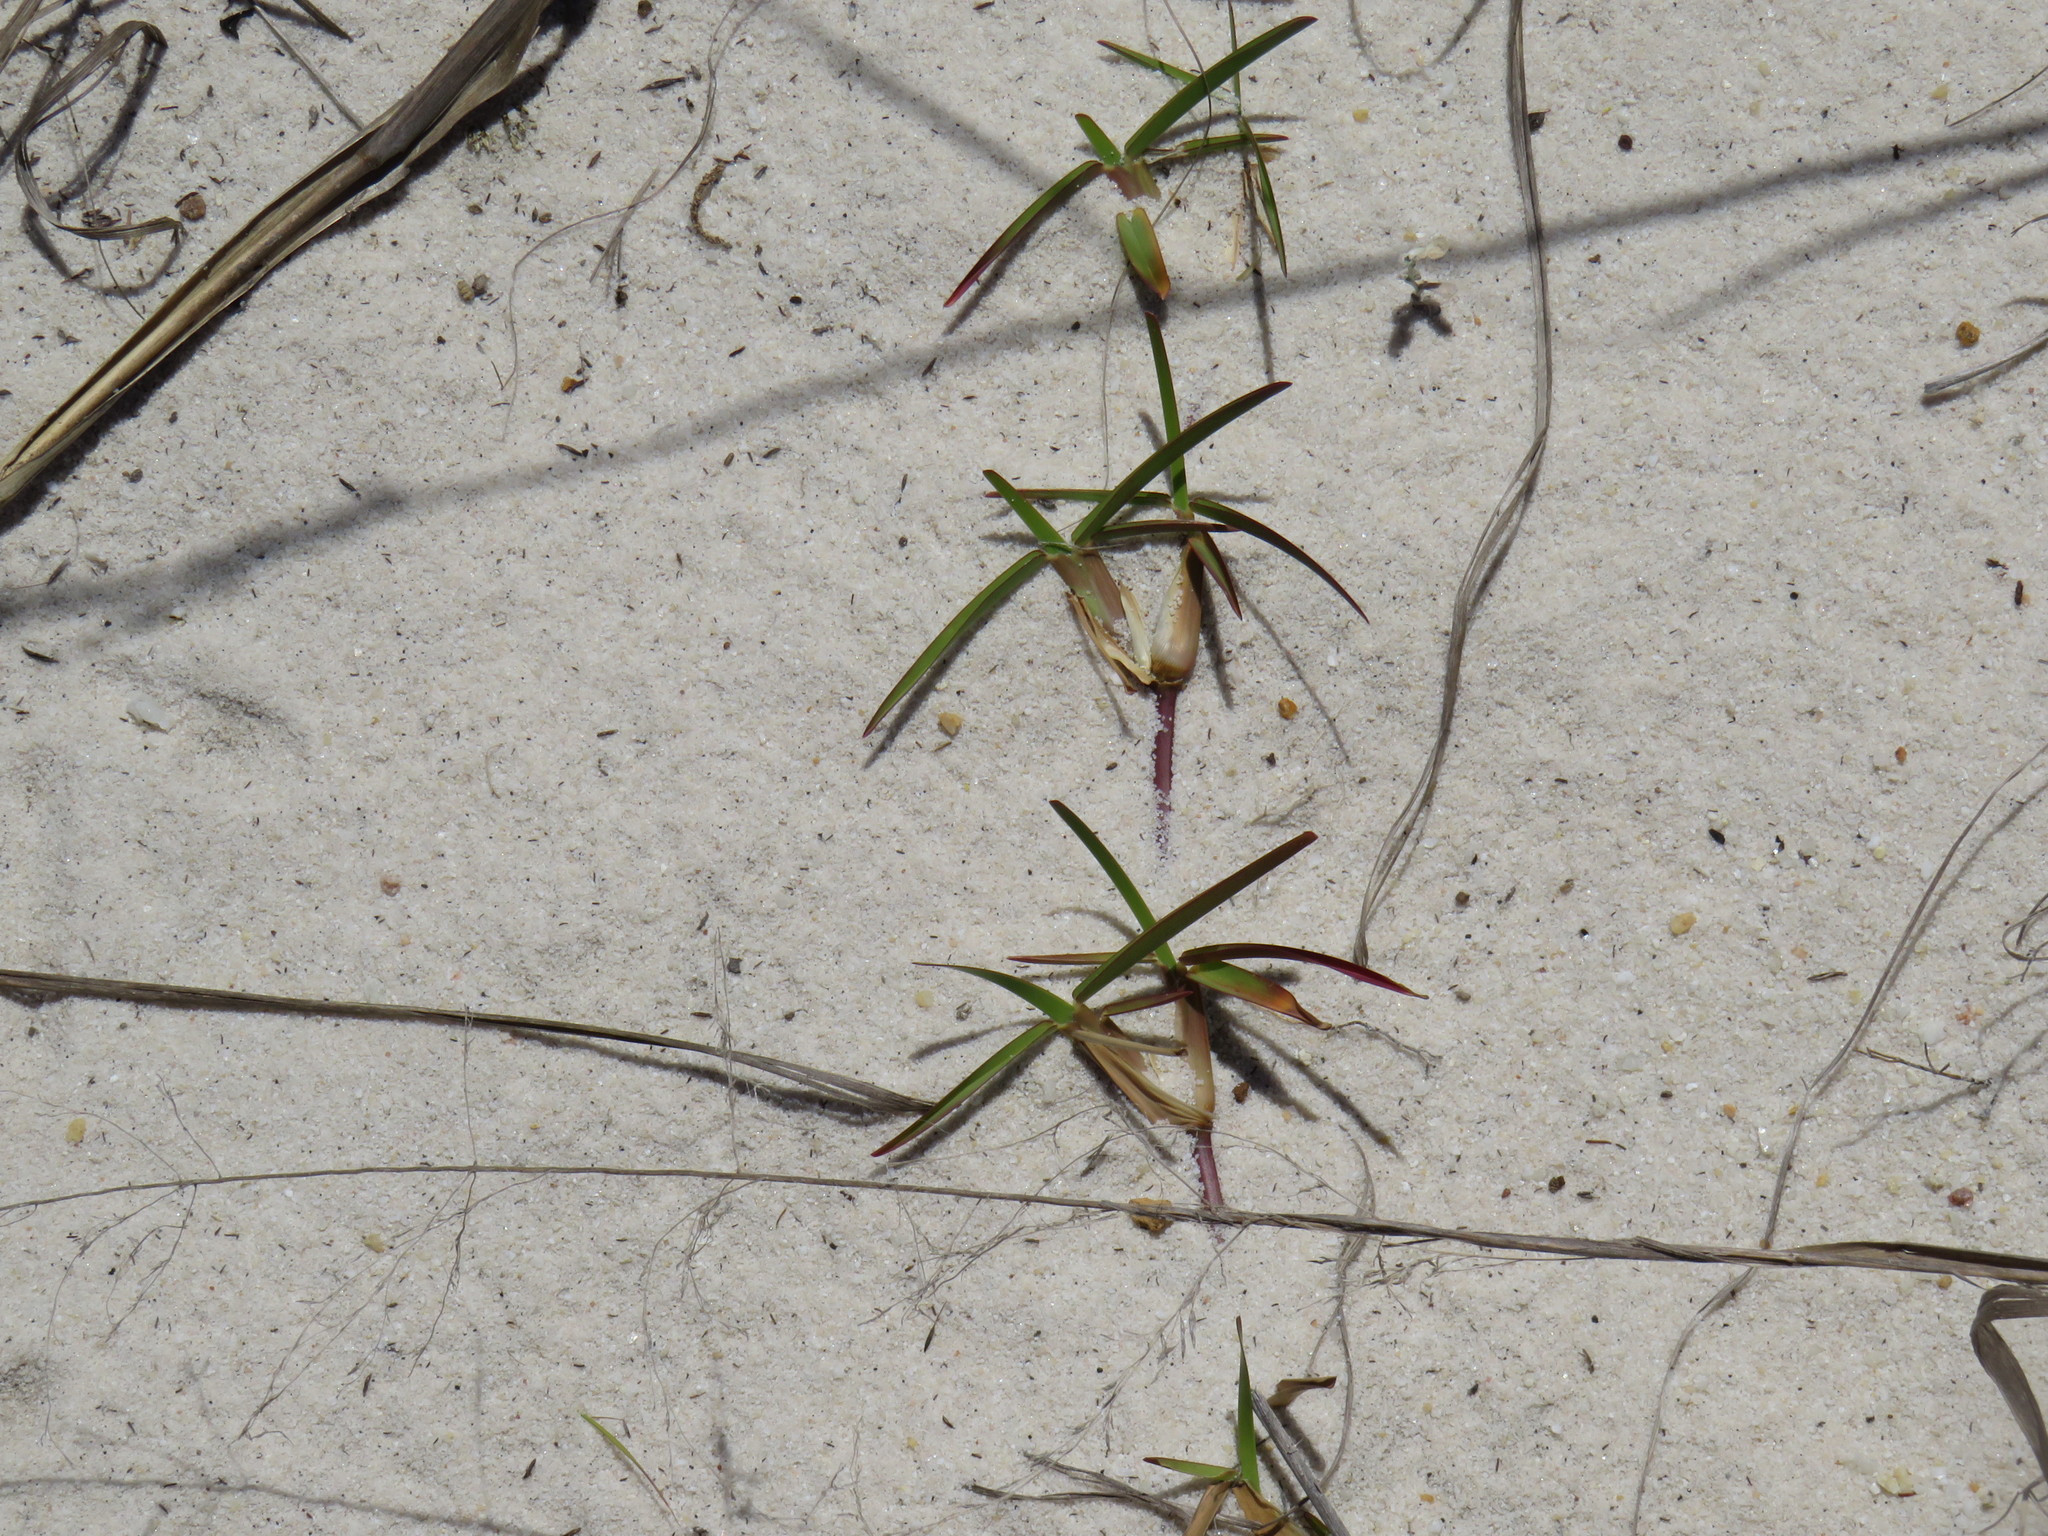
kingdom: Plantae
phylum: Tracheophyta
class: Liliopsida
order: Poales
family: Poaceae
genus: Stenotaphrum
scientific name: Stenotaphrum secundatum
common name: St. augustine grass
